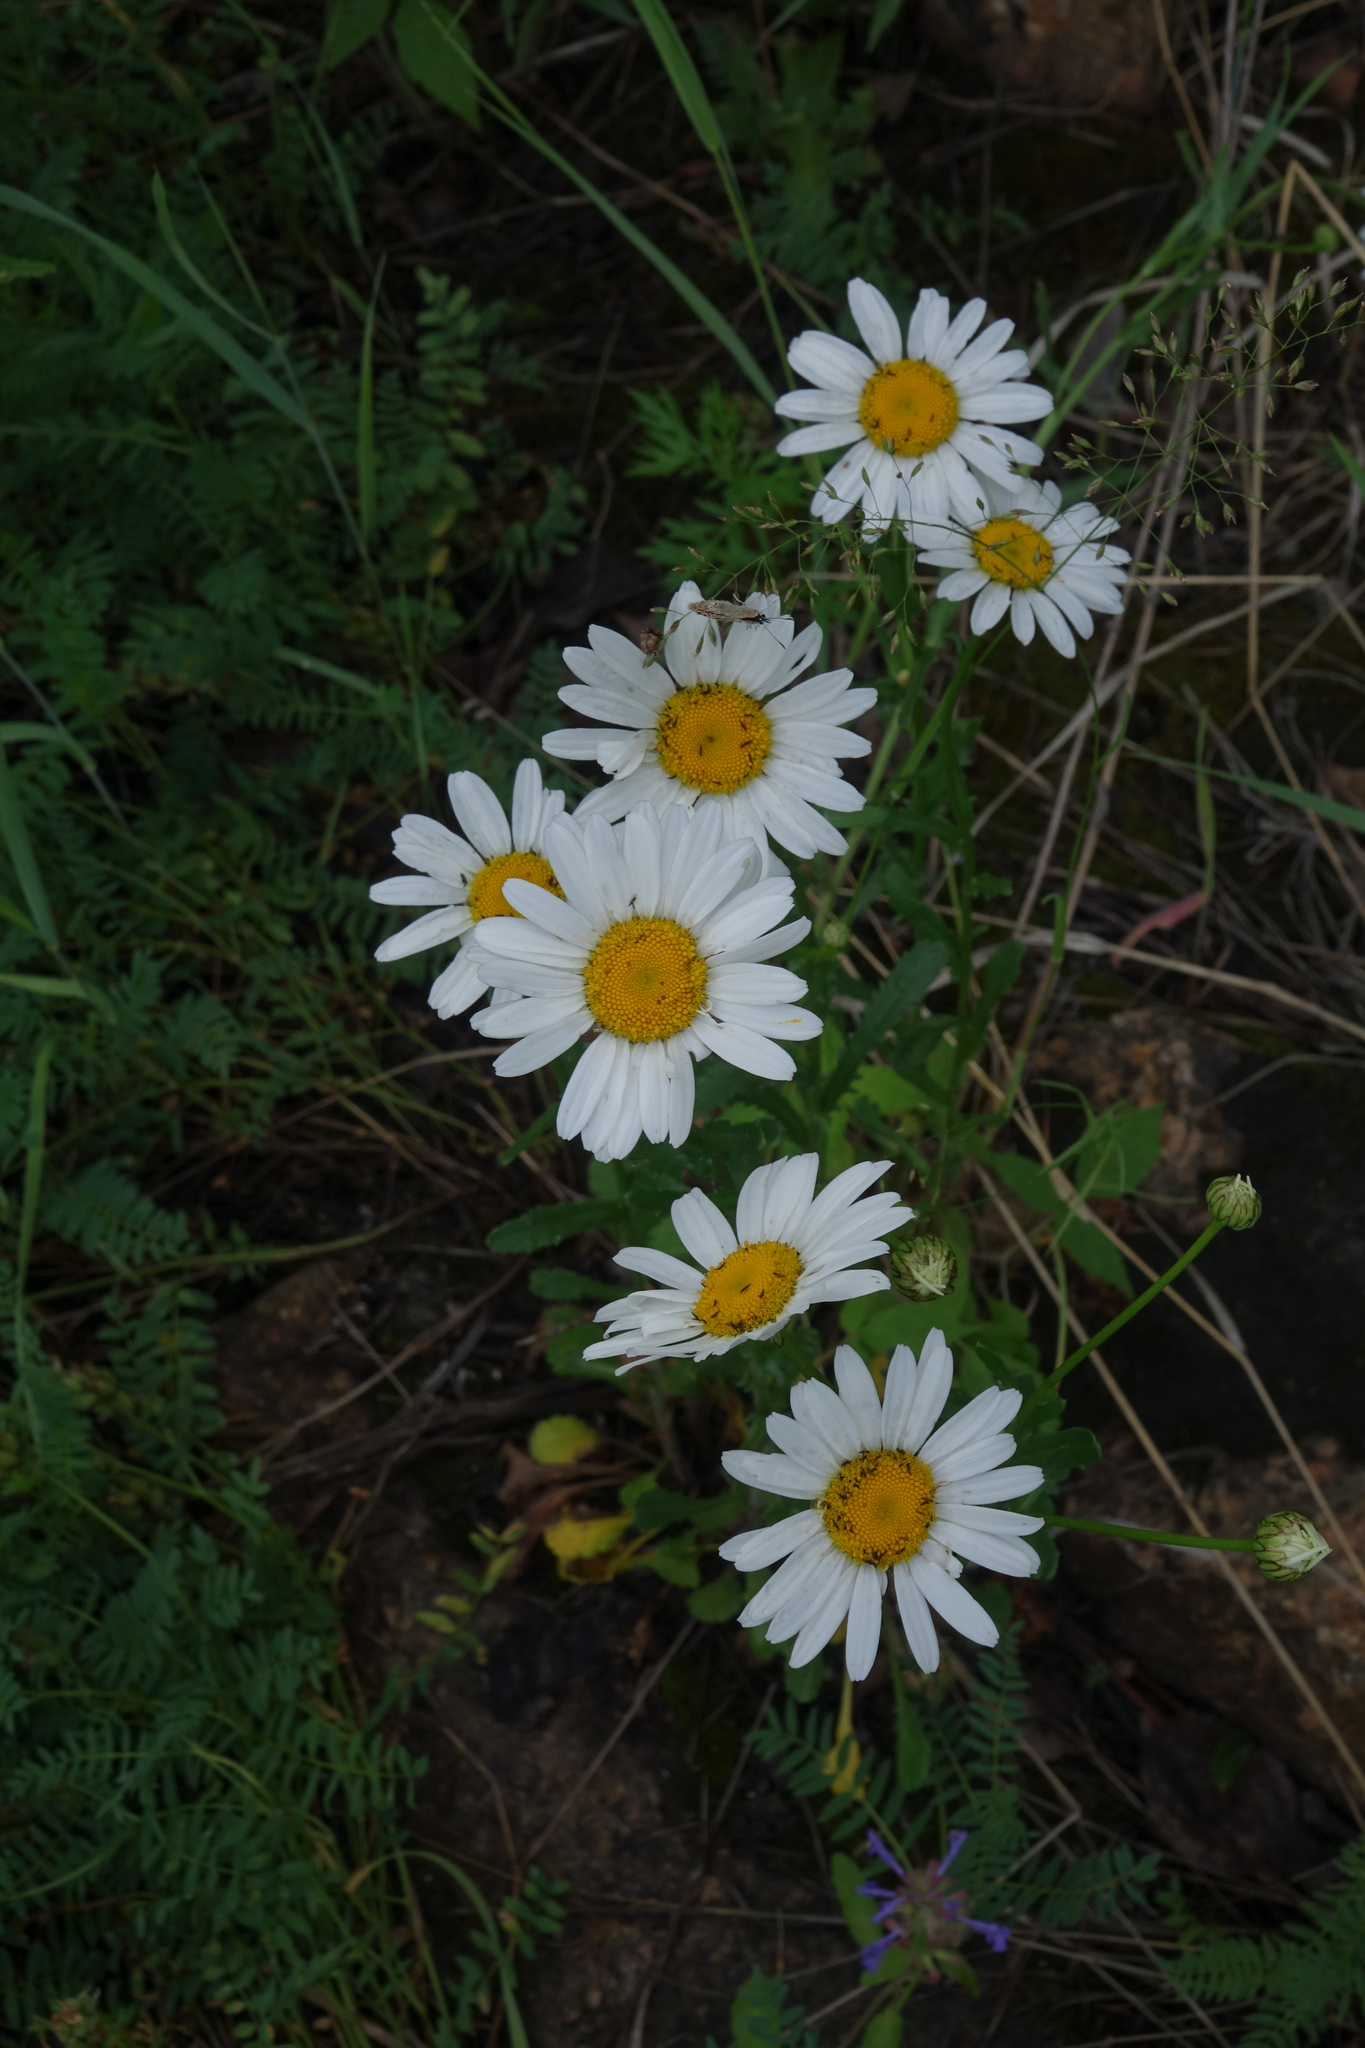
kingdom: Plantae
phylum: Tracheophyta
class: Magnoliopsida
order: Asterales
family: Asteraceae
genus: Leucanthemum
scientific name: Leucanthemum ircutianum
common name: Daisy
